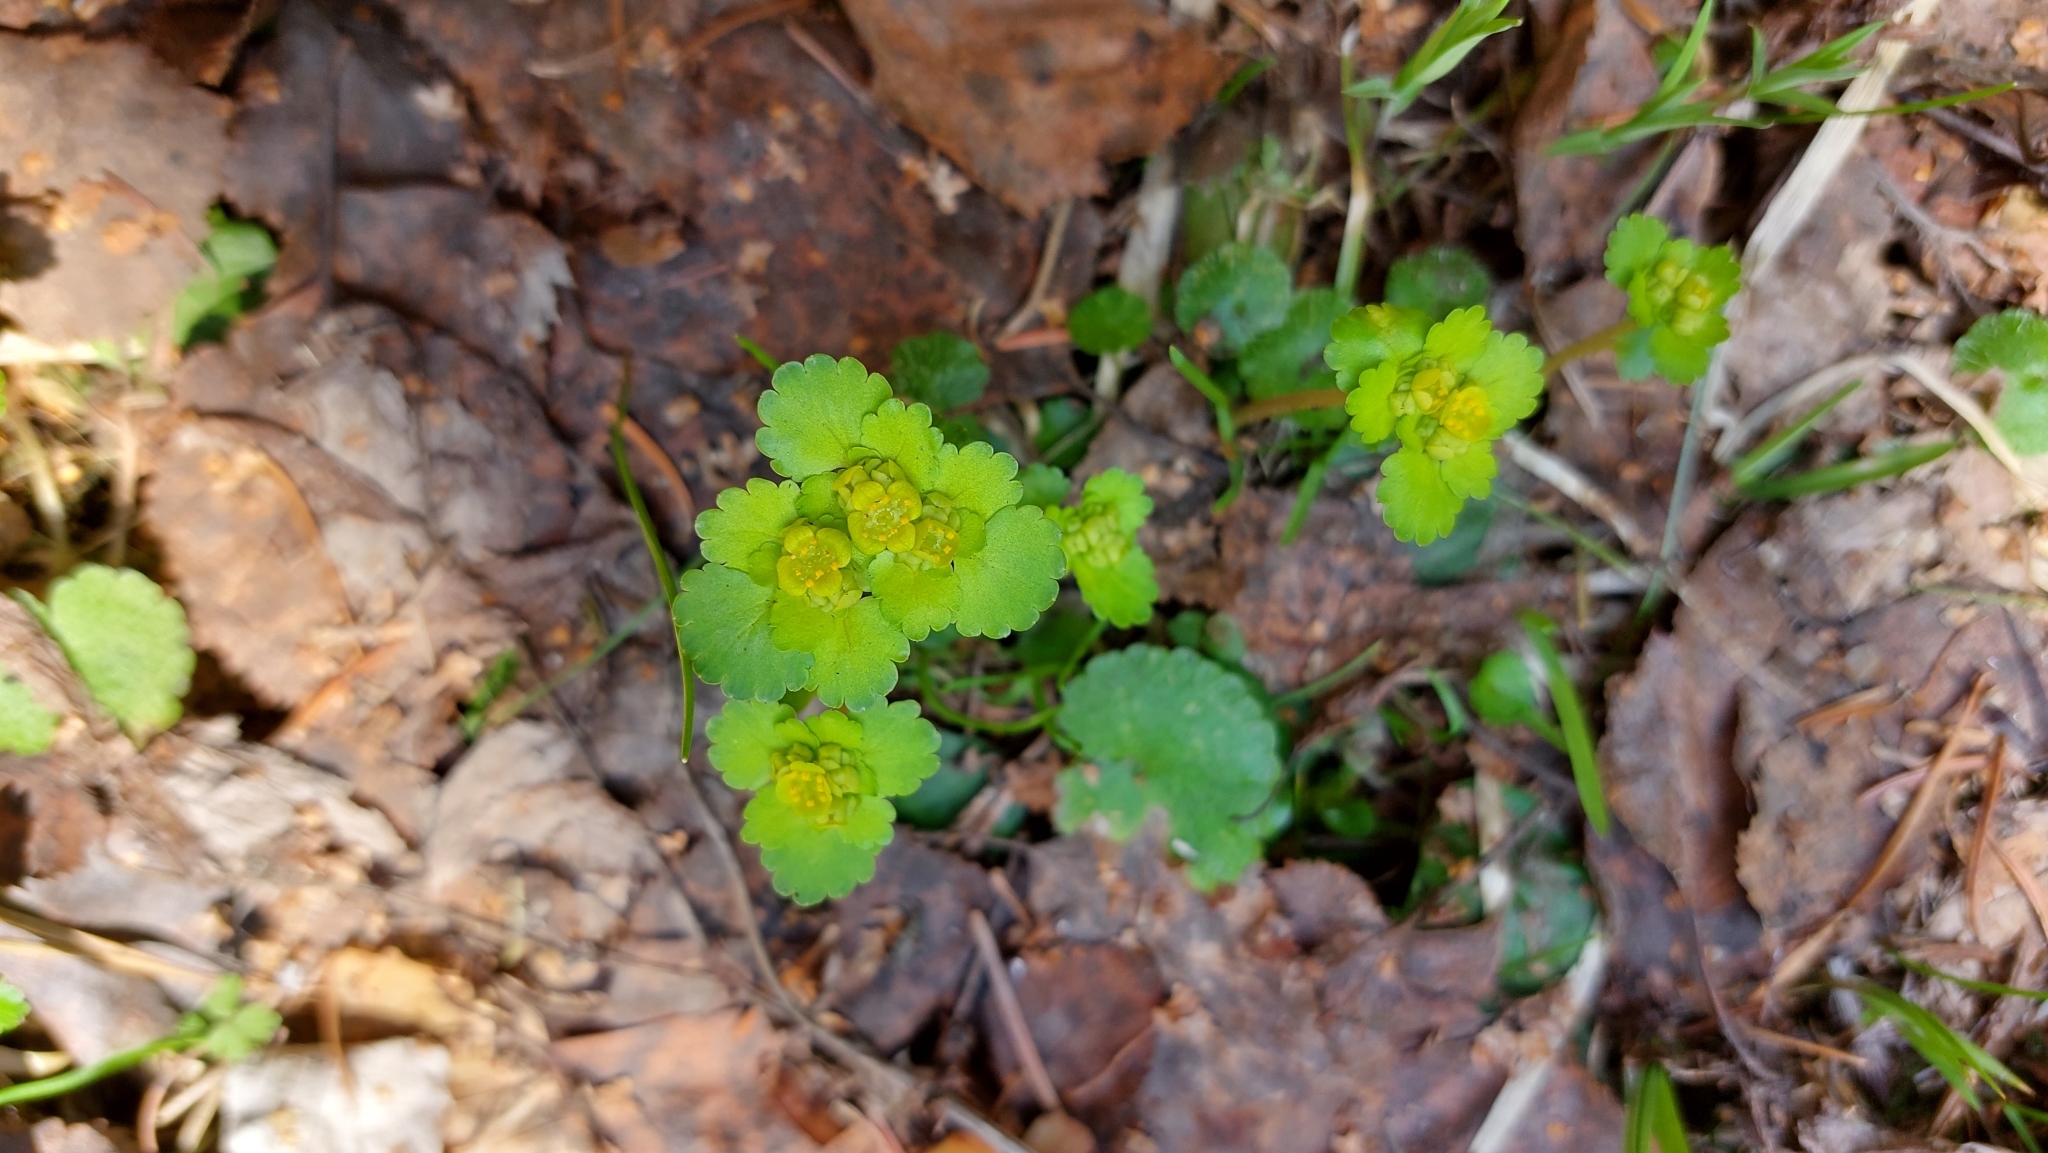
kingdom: Plantae
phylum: Tracheophyta
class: Magnoliopsida
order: Saxifragales
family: Saxifragaceae
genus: Chrysosplenium
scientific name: Chrysosplenium alternifolium
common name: Alternate-leaved golden-saxifrage
